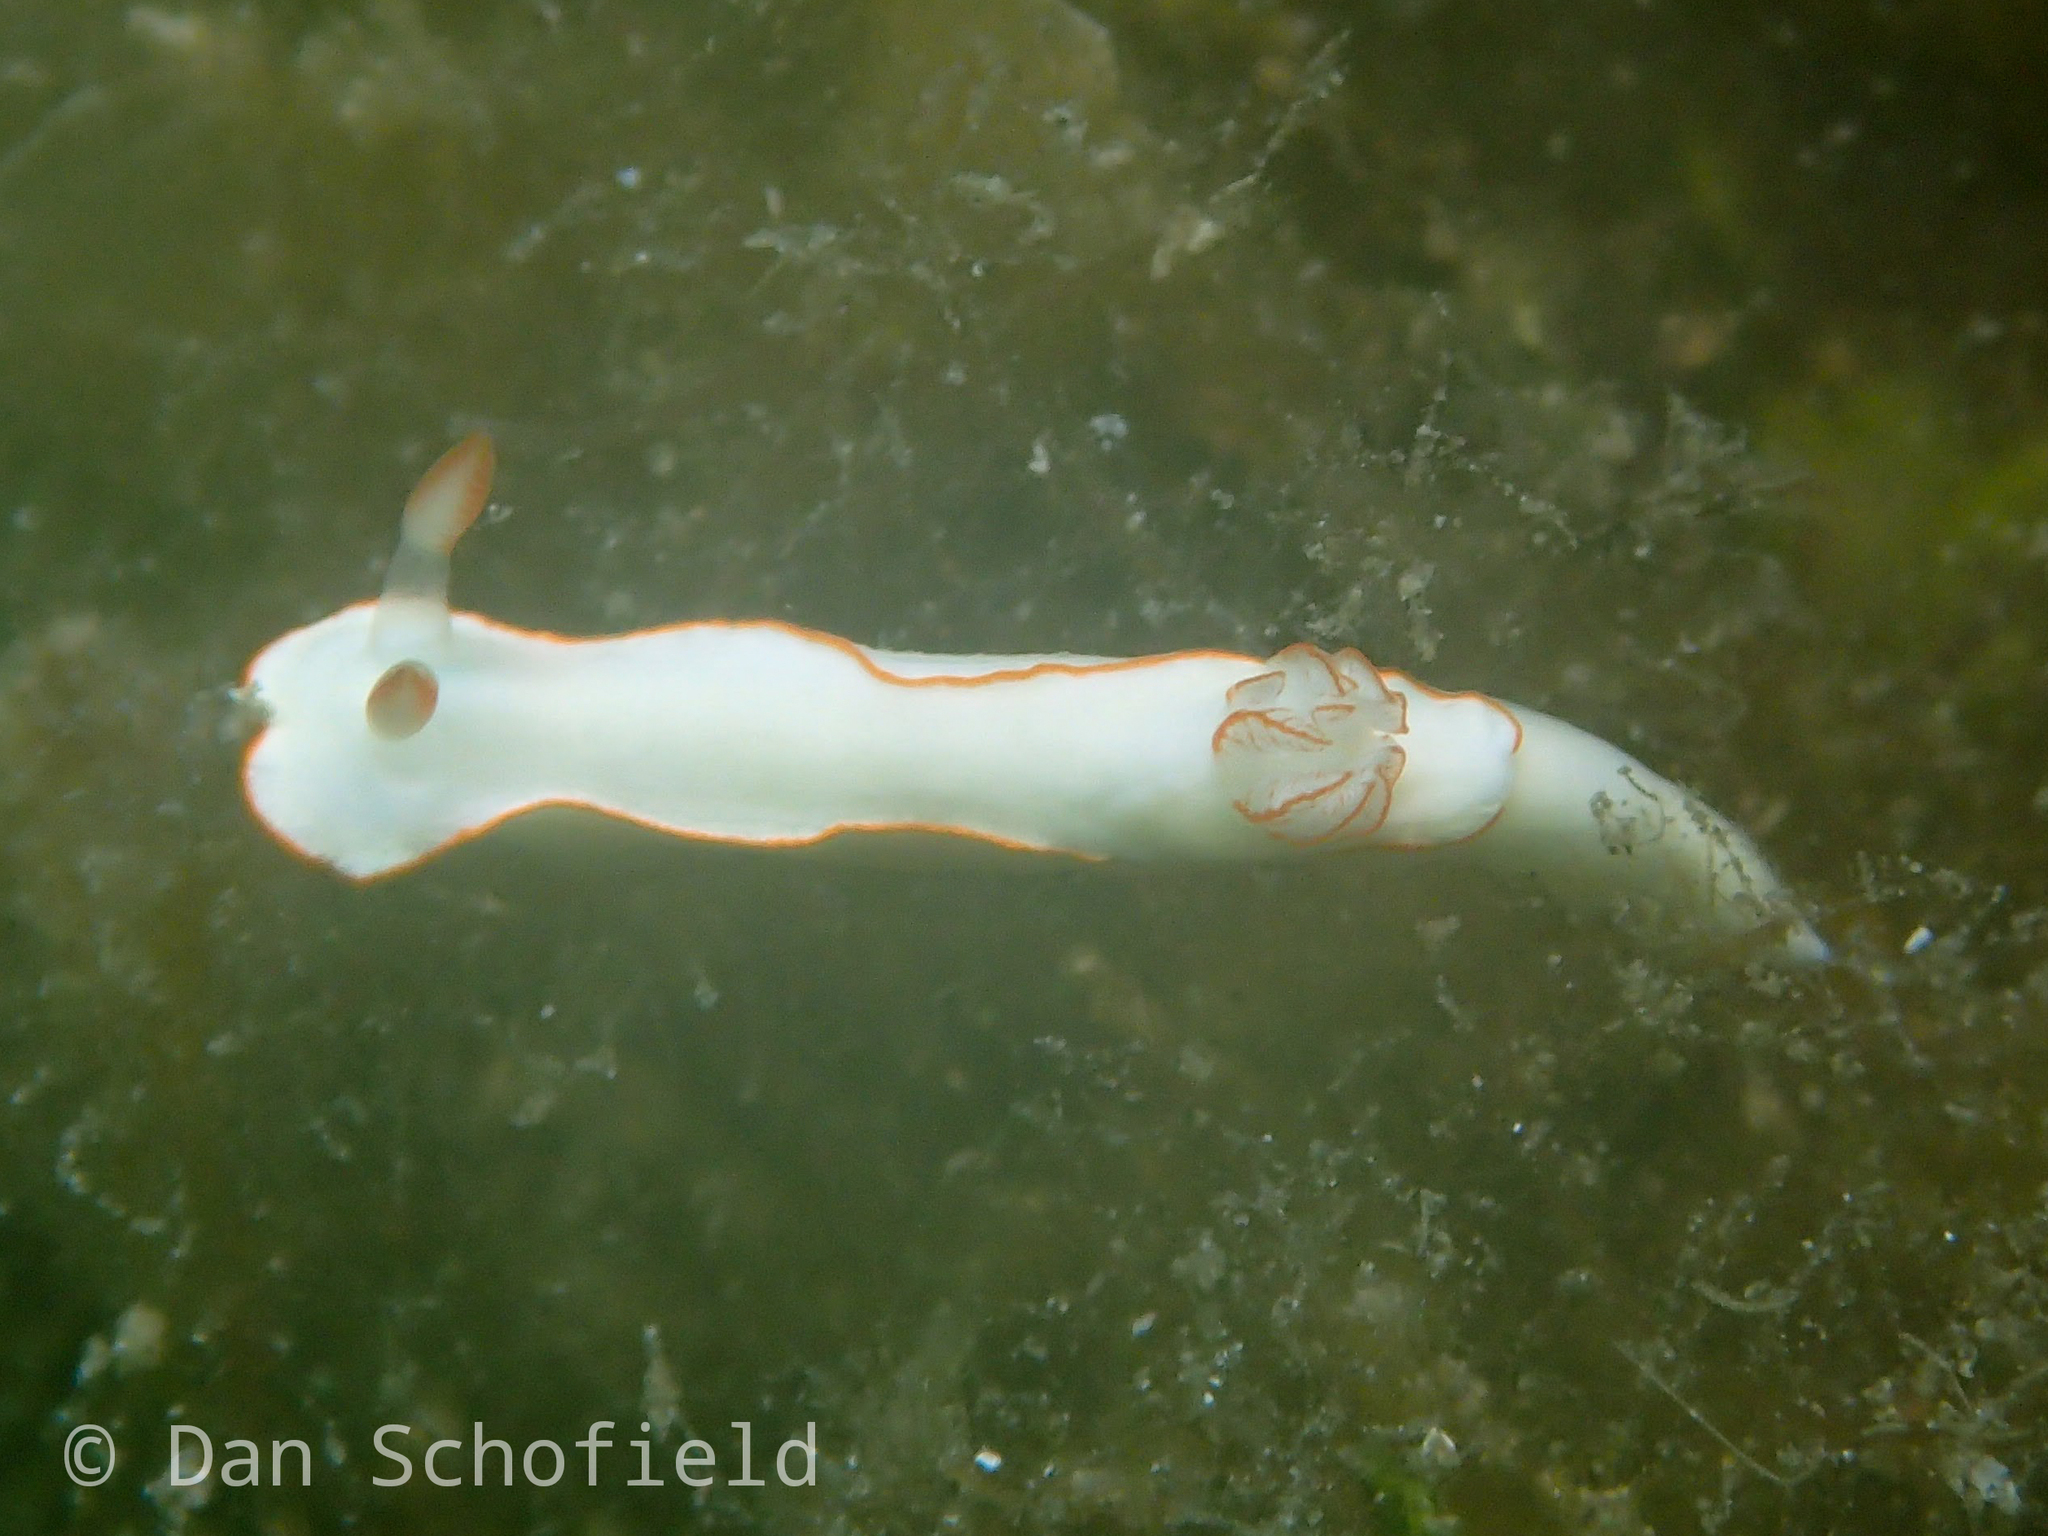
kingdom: Animalia
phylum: Mollusca
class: Gastropoda
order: Nudibranchia
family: Chromodorididae
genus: Thorunna
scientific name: Thorunna furtiva
